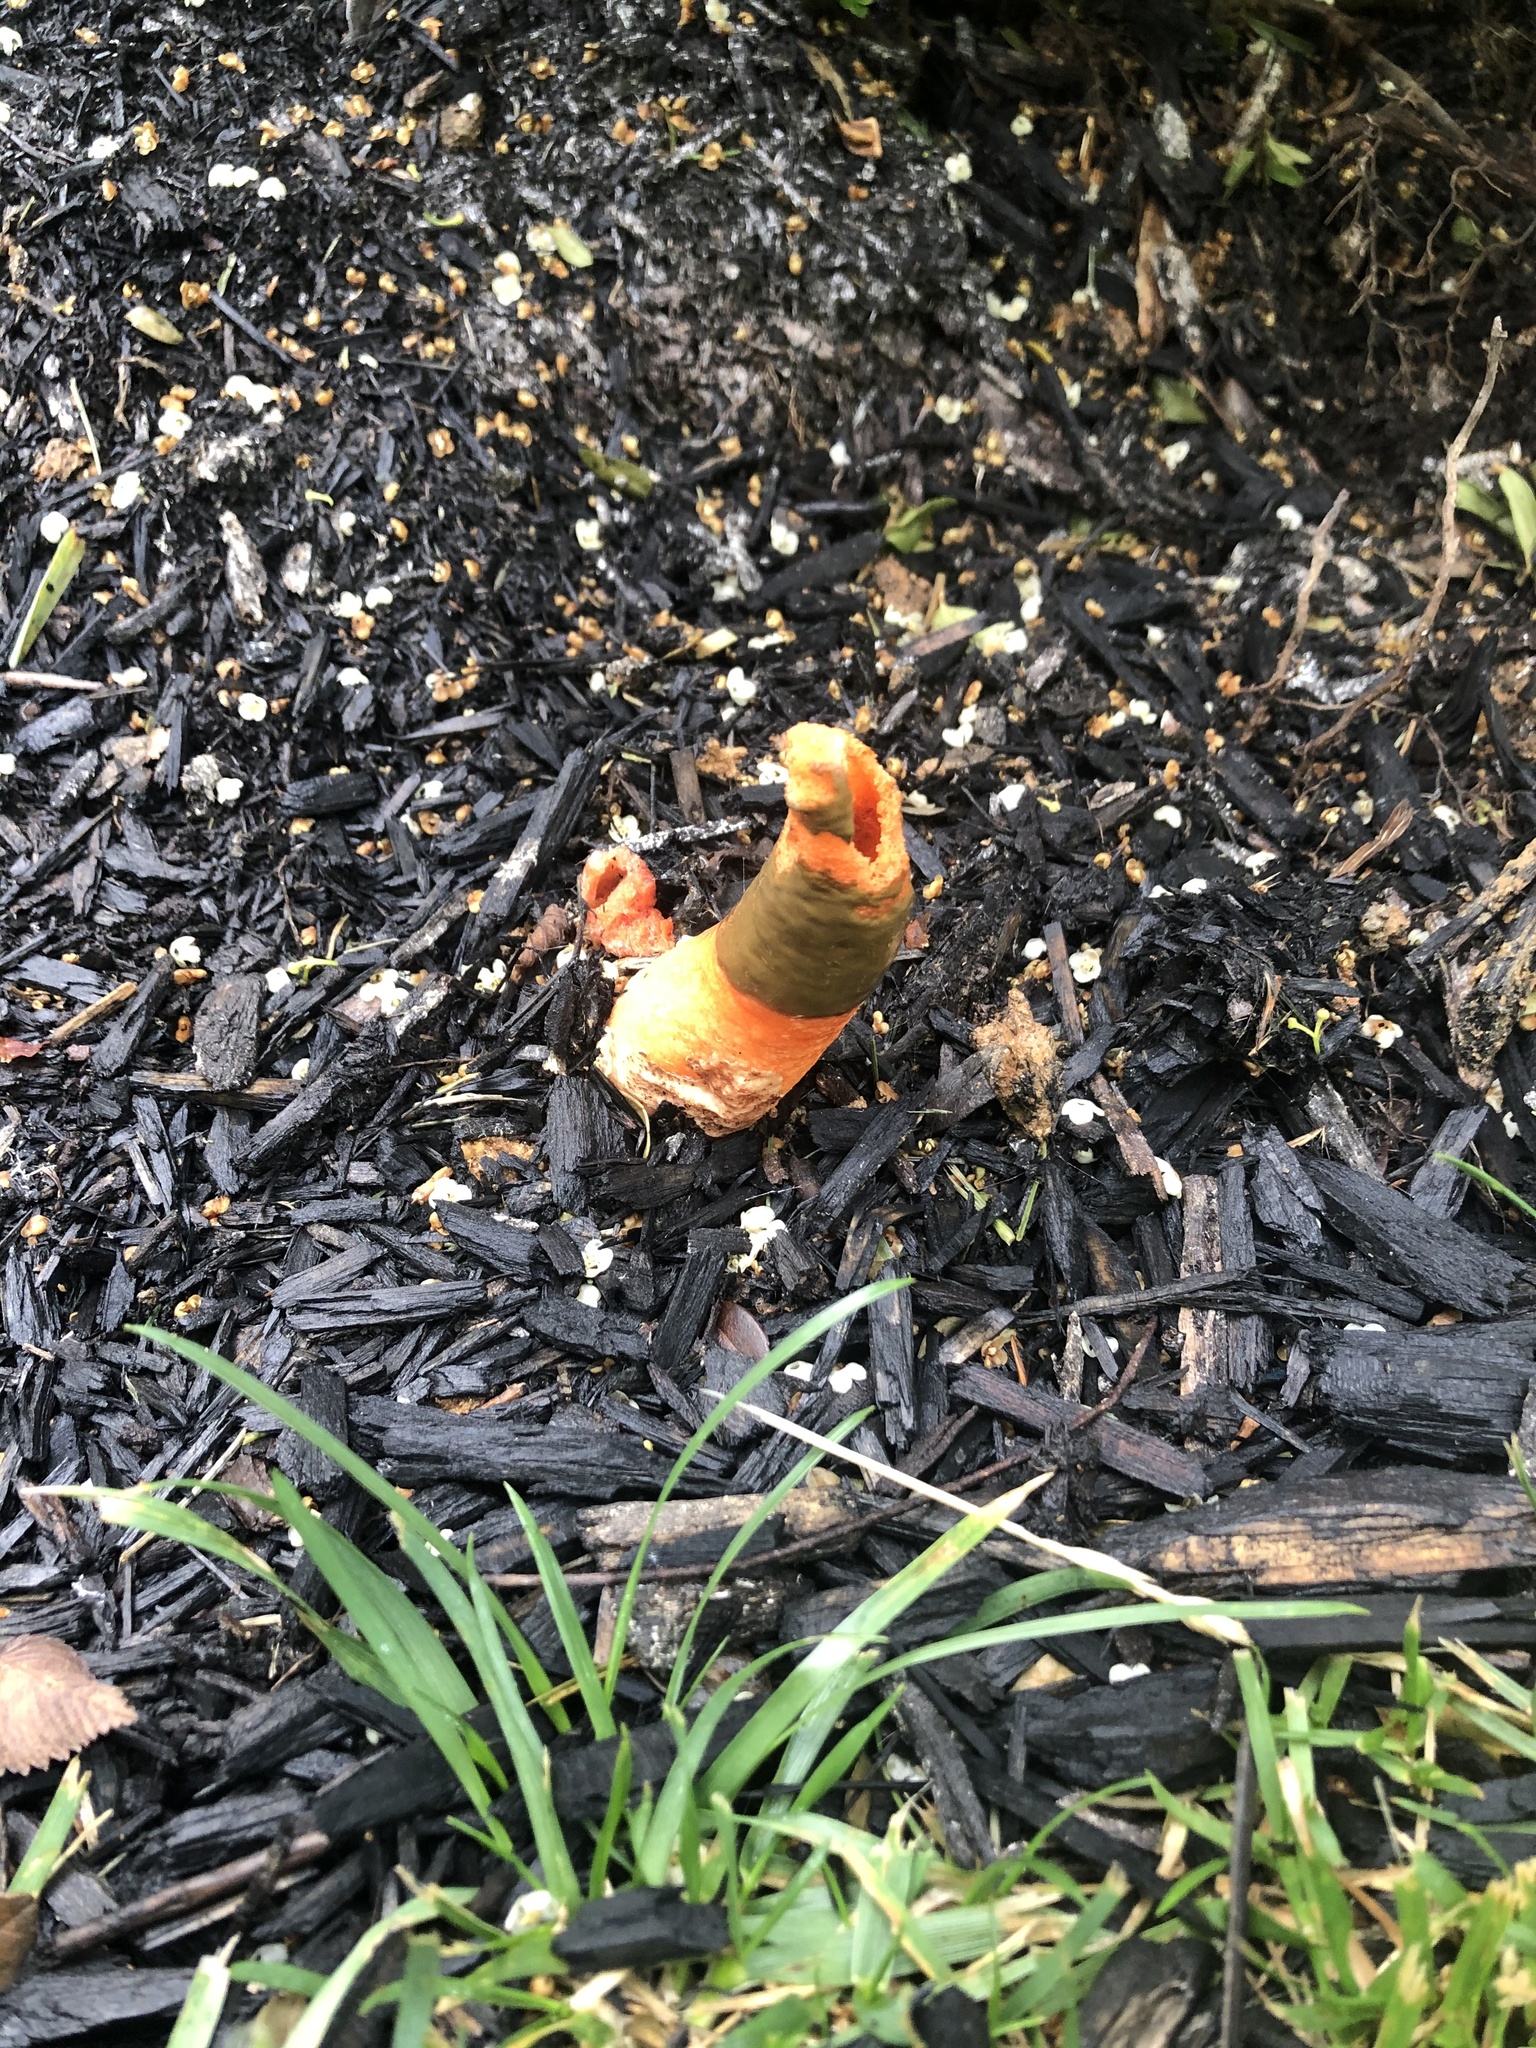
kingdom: Fungi
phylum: Basidiomycota
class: Agaricomycetes
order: Phallales
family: Phallaceae
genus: Mutinus
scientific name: Mutinus elegans
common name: Devil's dipstick
